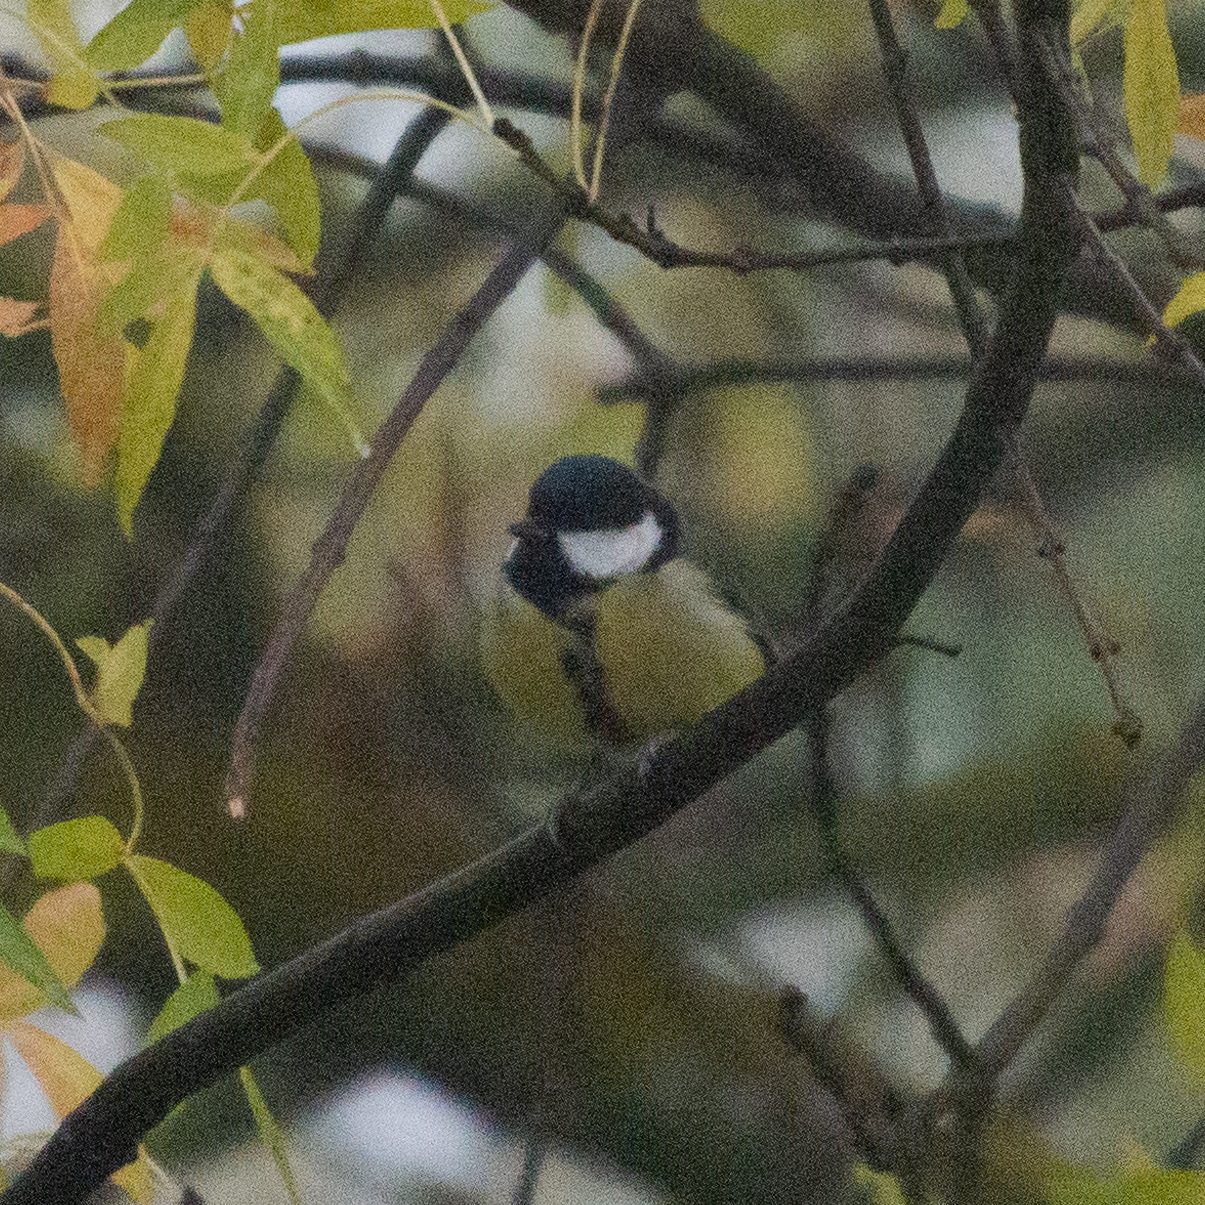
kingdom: Animalia
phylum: Chordata
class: Aves
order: Passeriformes
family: Paridae
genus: Parus
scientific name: Parus major
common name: Great tit
